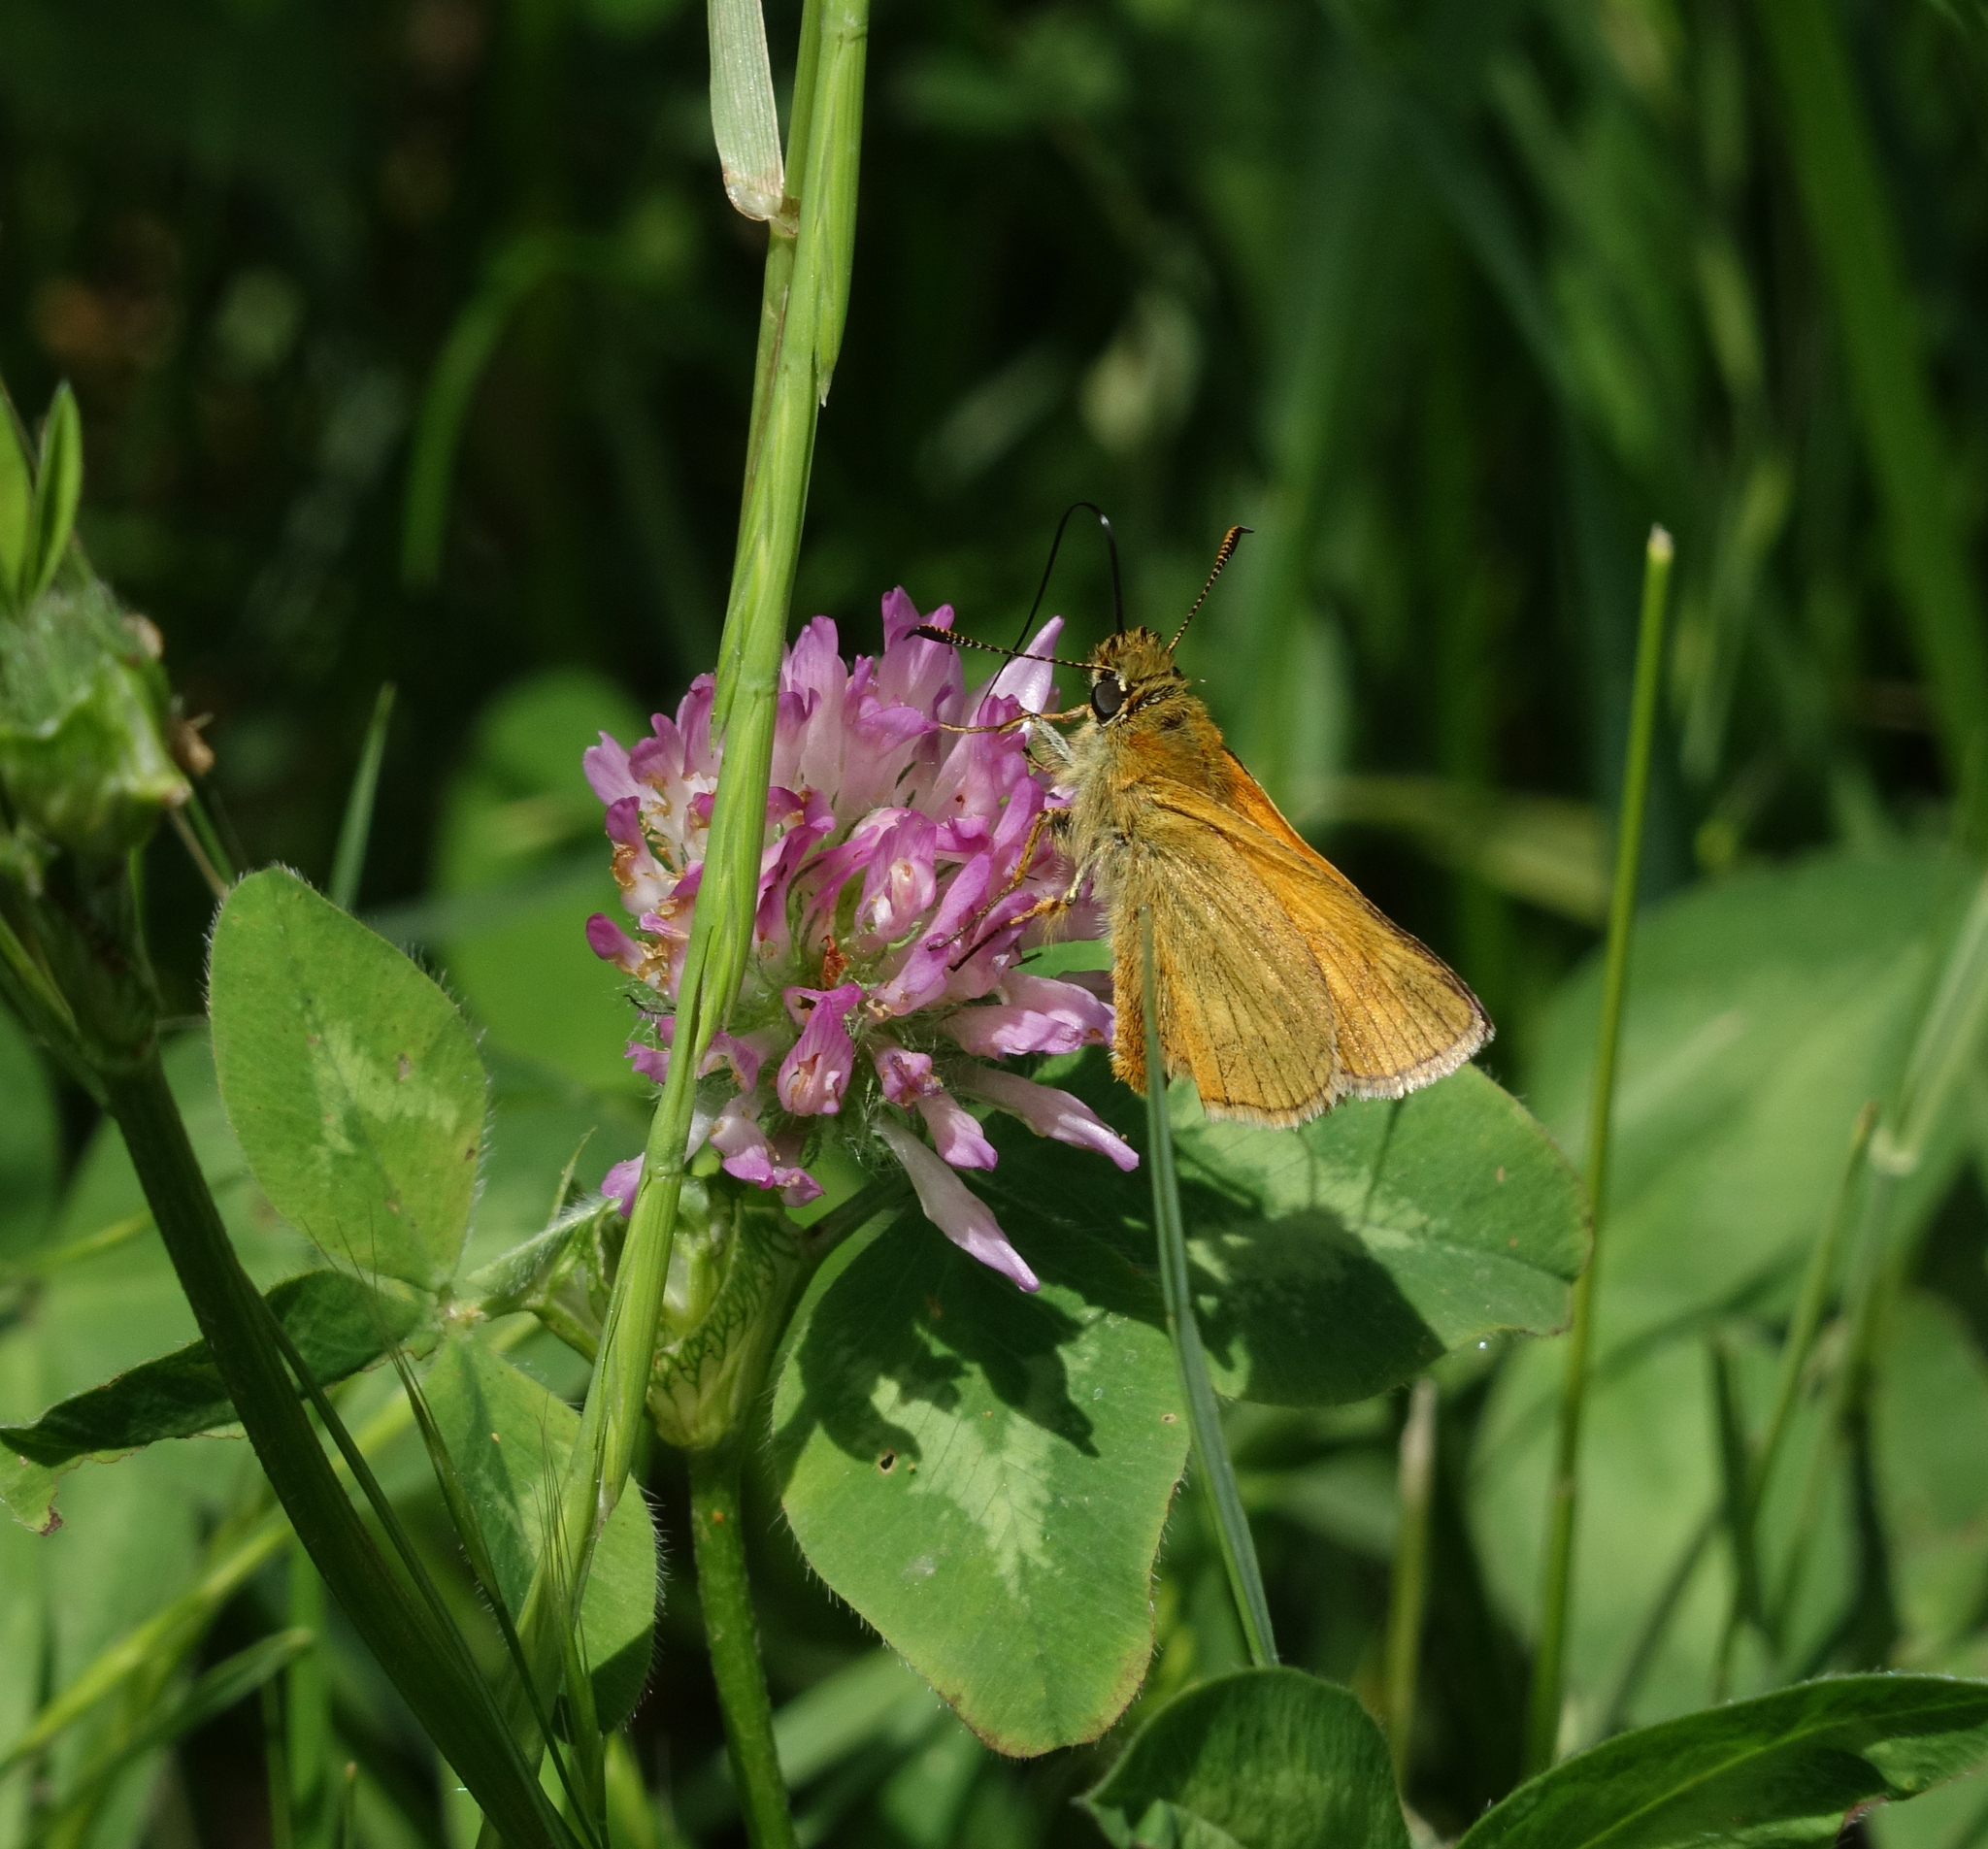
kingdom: Plantae
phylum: Tracheophyta
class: Magnoliopsida
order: Fabales
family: Fabaceae
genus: Trifolium
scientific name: Trifolium pratense
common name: Red clover
